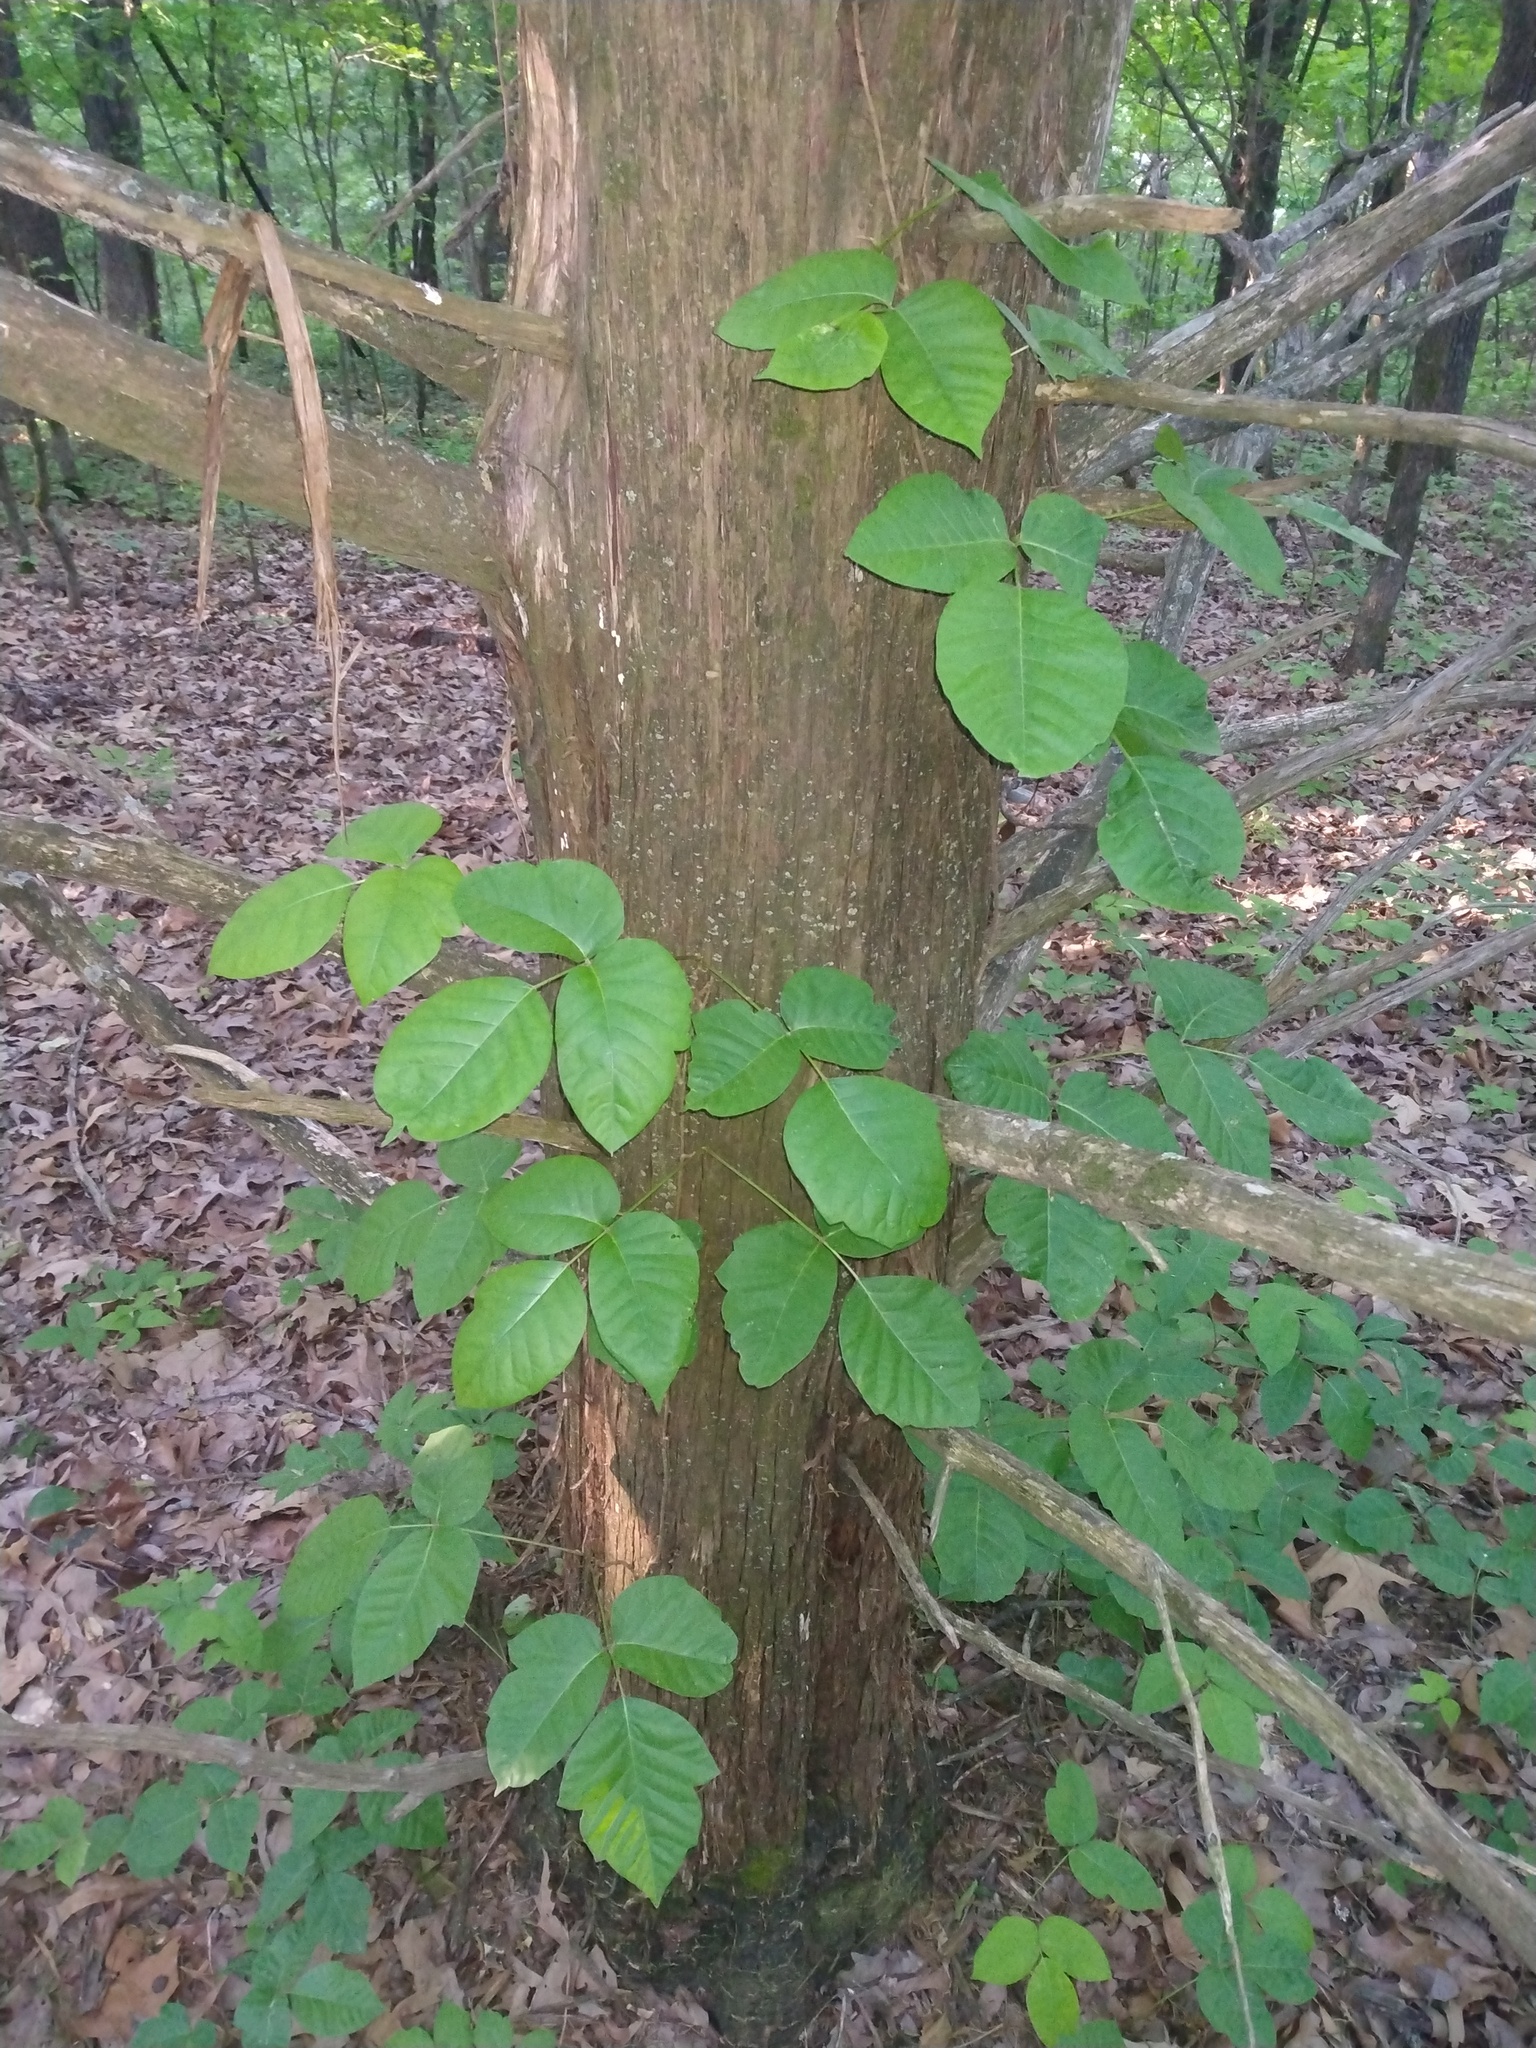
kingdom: Plantae
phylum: Tracheophyta
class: Magnoliopsida
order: Sapindales
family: Anacardiaceae
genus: Toxicodendron
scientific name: Toxicodendron radicans
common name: Poison ivy
